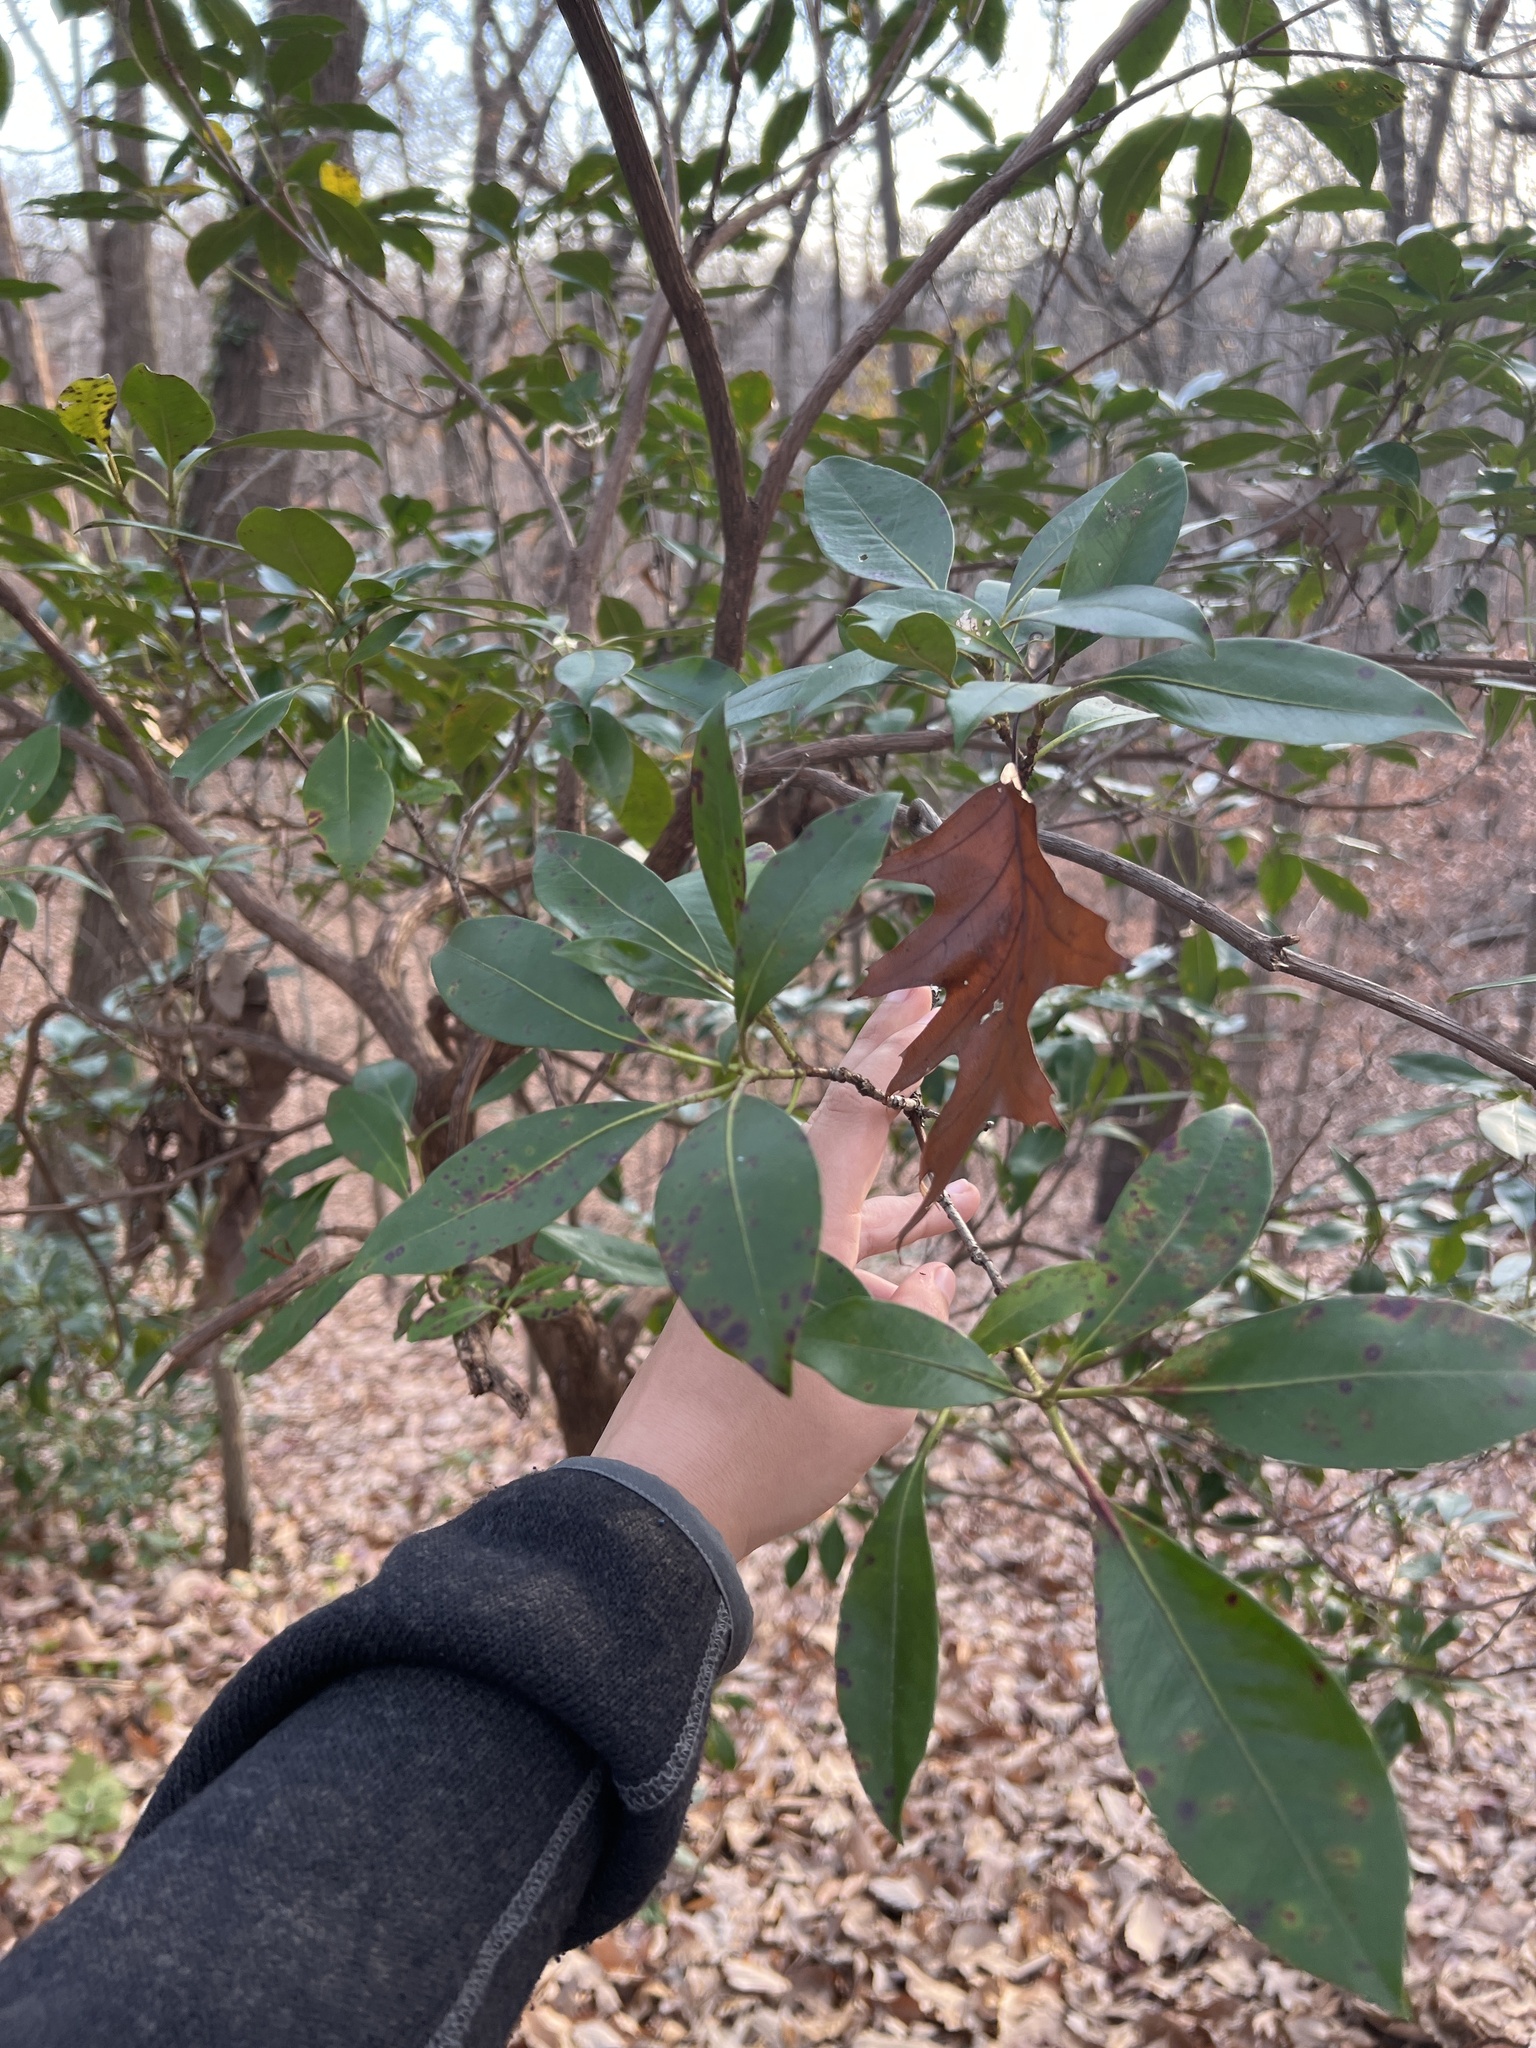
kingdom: Plantae
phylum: Tracheophyta
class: Magnoliopsida
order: Ericales
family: Ericaceae
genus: Kalmia
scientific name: Kalmia latifolia
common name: Mountain-laurel
